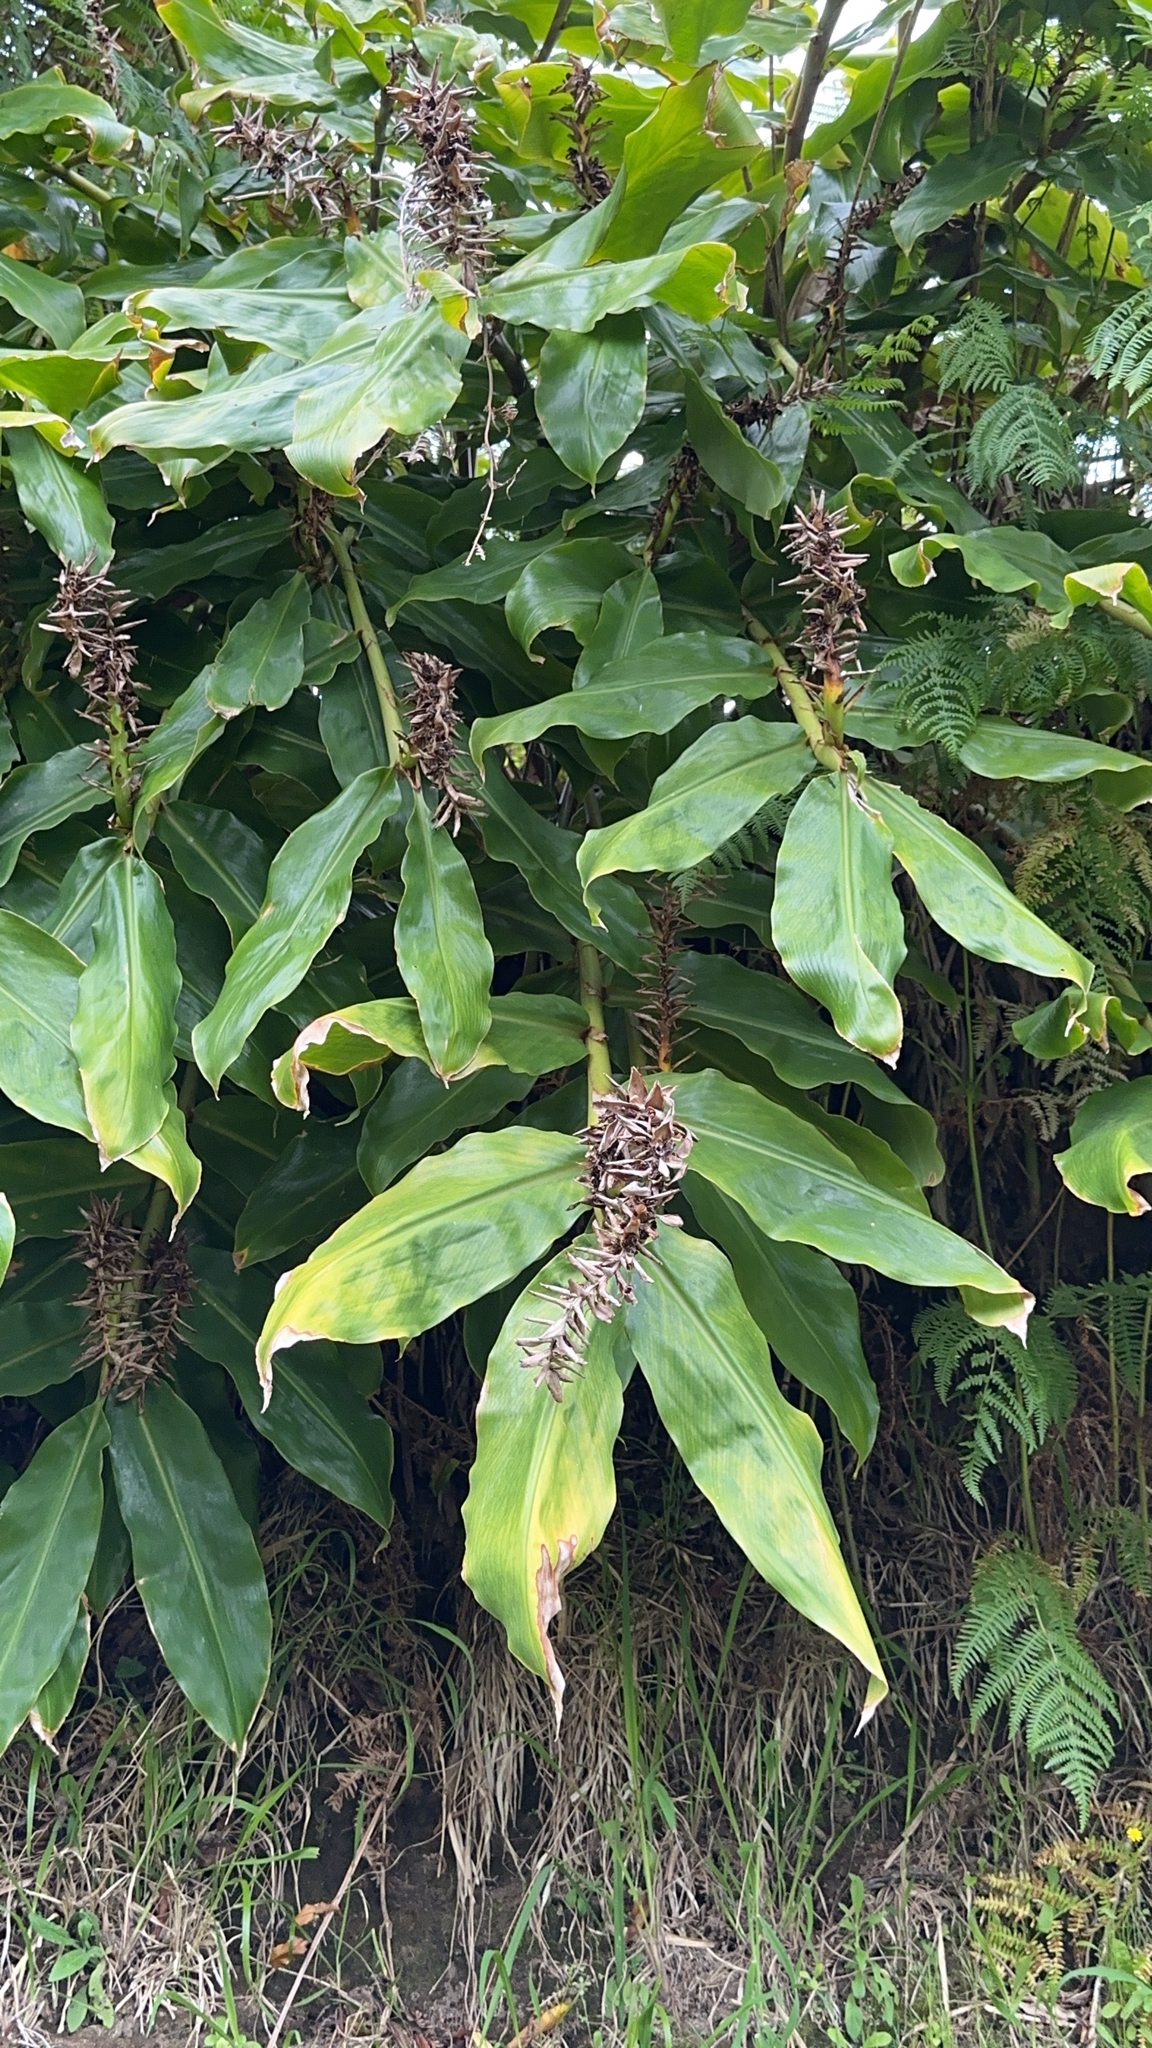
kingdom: Plantae
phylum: Tracheophyta
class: Liliopsida
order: Zingiberales
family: Zingiberaceae
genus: Hedychium
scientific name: Hedychium gardnerianum
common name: Himalayan ginger
